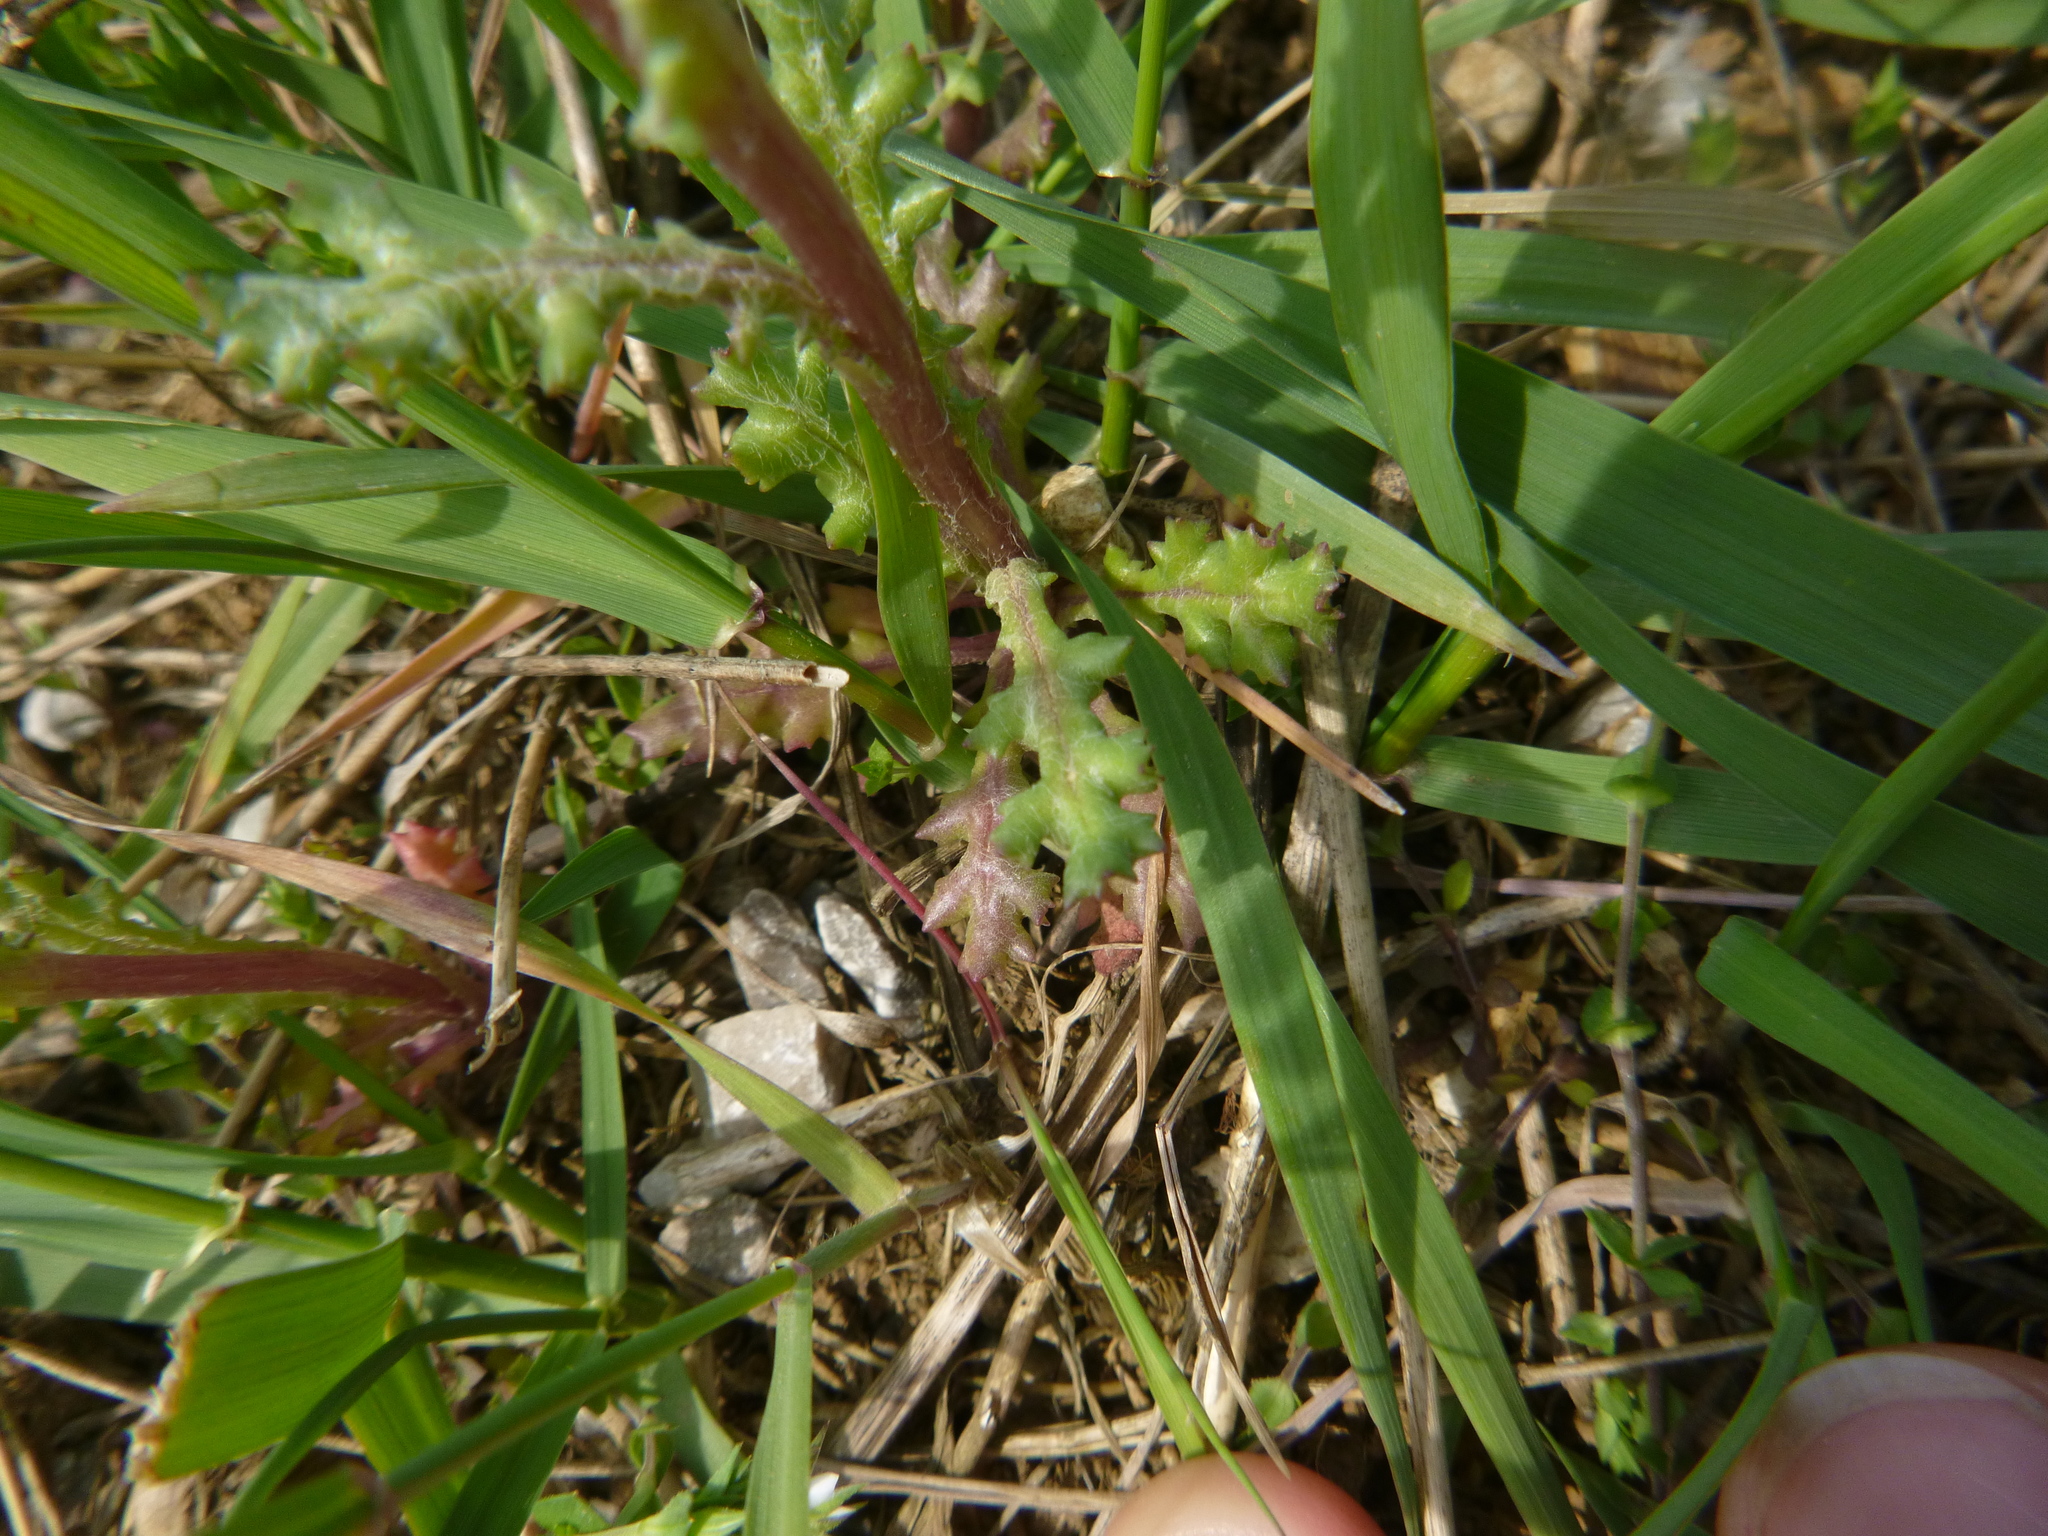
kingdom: Plantae
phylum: Tracheophyta
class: Magnoliopsida
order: Asterales
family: Asteraceae
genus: Senecio
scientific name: Senecio vulgaris
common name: Old-man-in-the-spring
